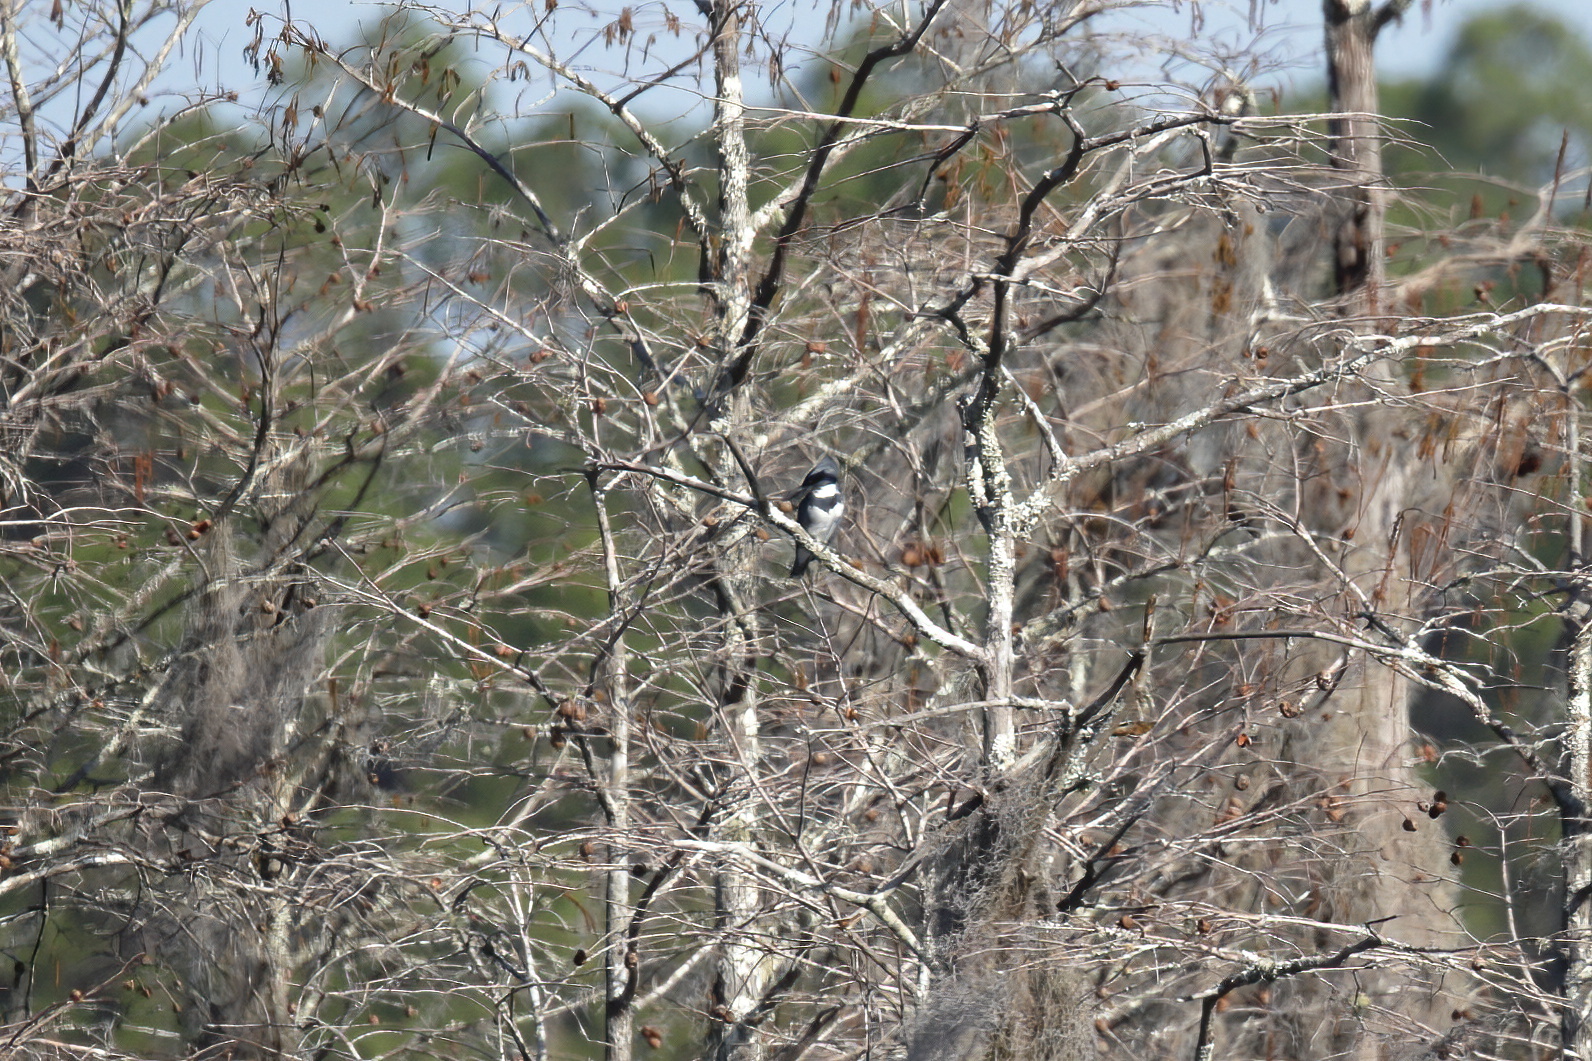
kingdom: Animalia
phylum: Chordata
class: Aves
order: Coraciiformes
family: Alcedinidae
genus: Megaceryle
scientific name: Megaceryle alcyon
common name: Belted kingfisher
